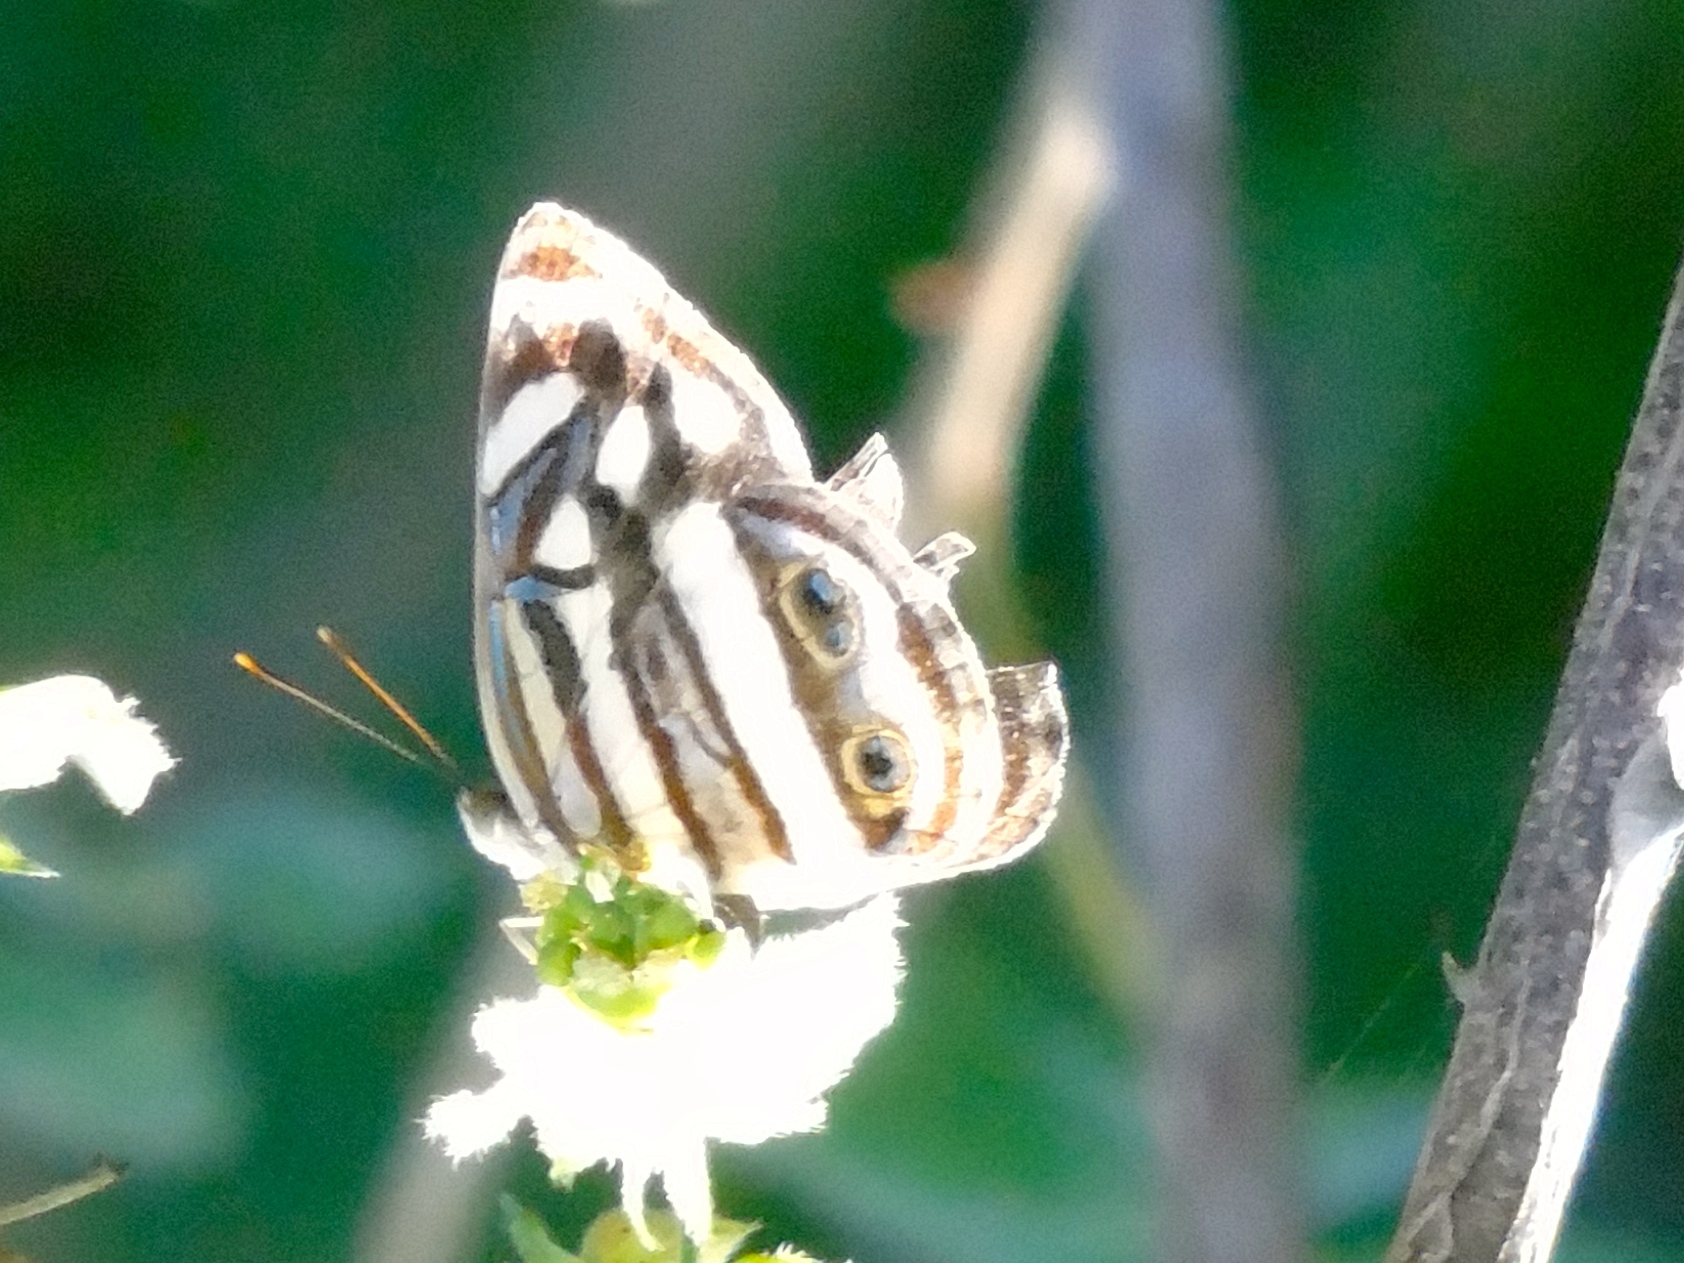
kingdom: Animalia
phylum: Arthropoda
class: Insecta
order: Lepidoptera
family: Nymphalidae
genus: Dynamine
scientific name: Dynamine mylitta
